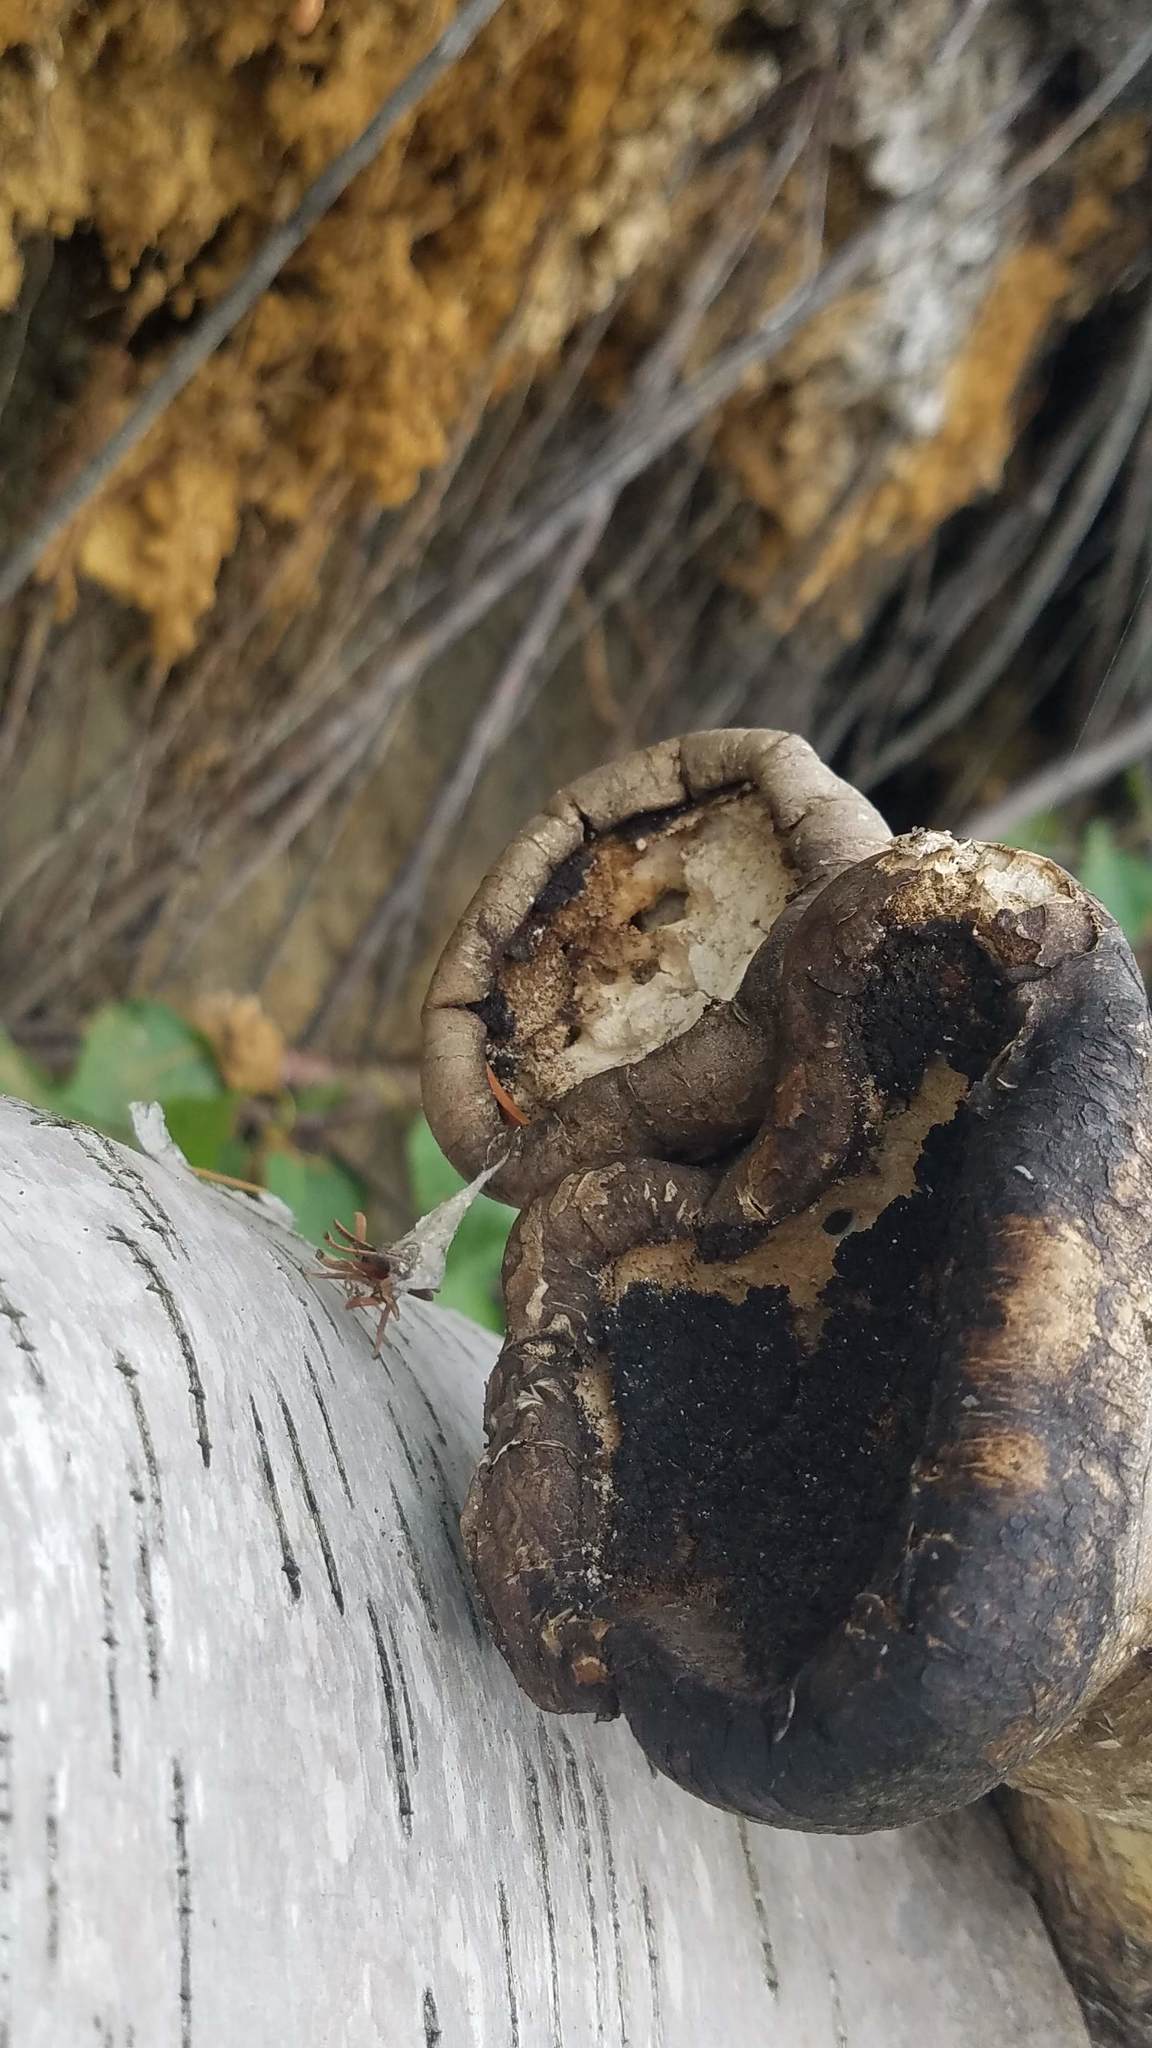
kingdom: Fungi
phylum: Basidiomycota
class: Agaricomycetes
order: Polyporales
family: Fomitopsidaceae
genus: Fomitopsis
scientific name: Fomitopsis betulina
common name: Birch polypore
